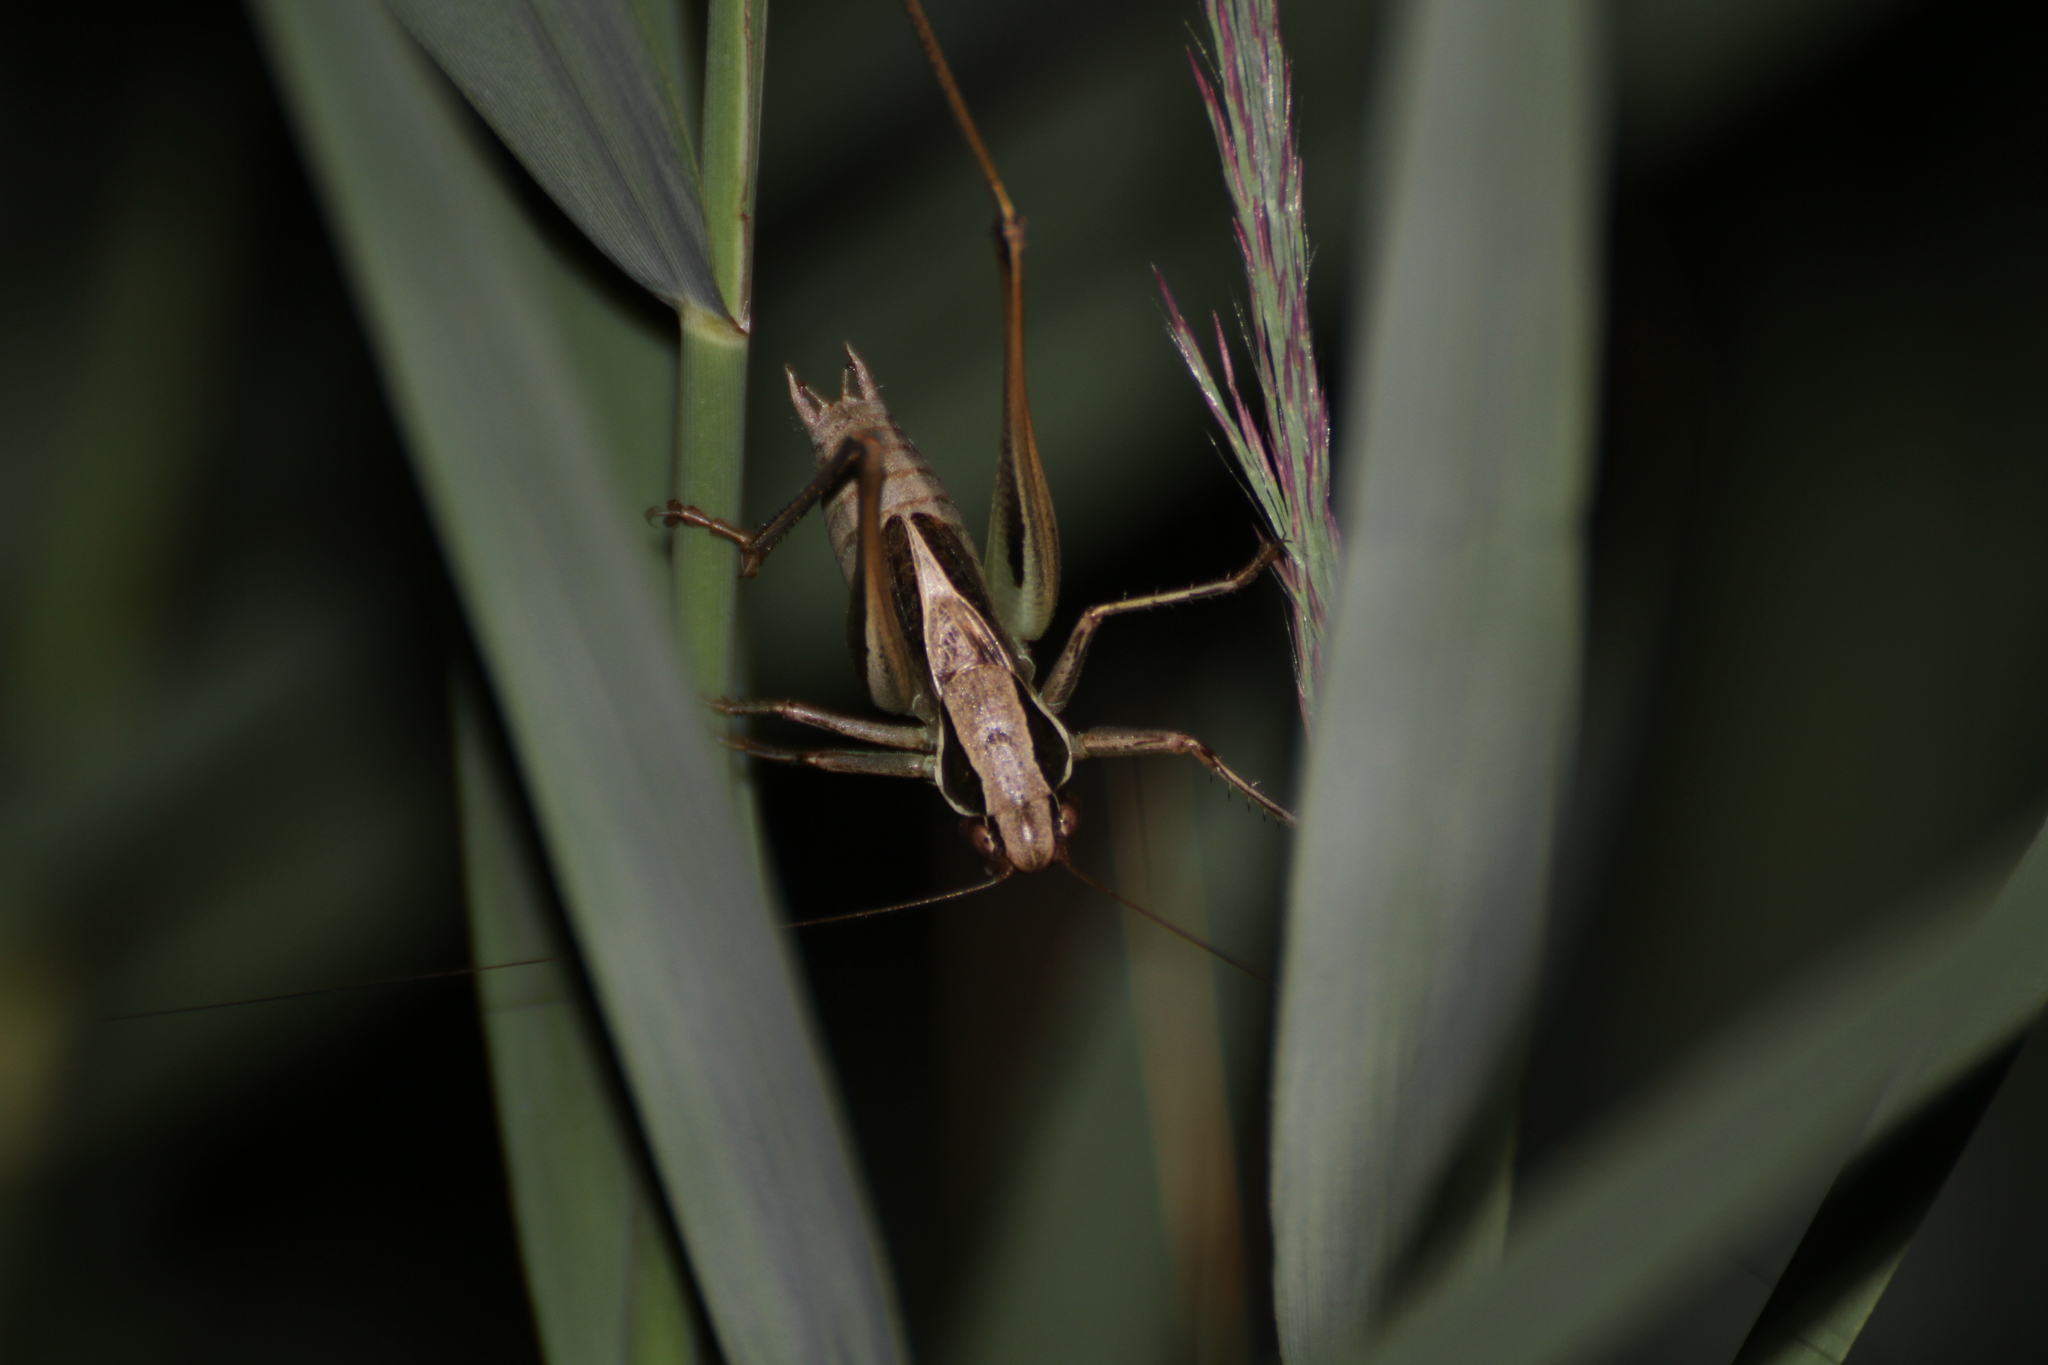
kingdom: Animalia
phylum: Arthropoda
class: Insecta
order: Orthoptera
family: Tettigoniidae
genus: Sepiana
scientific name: Sepiana sepium
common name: Sepia bush-cricket
